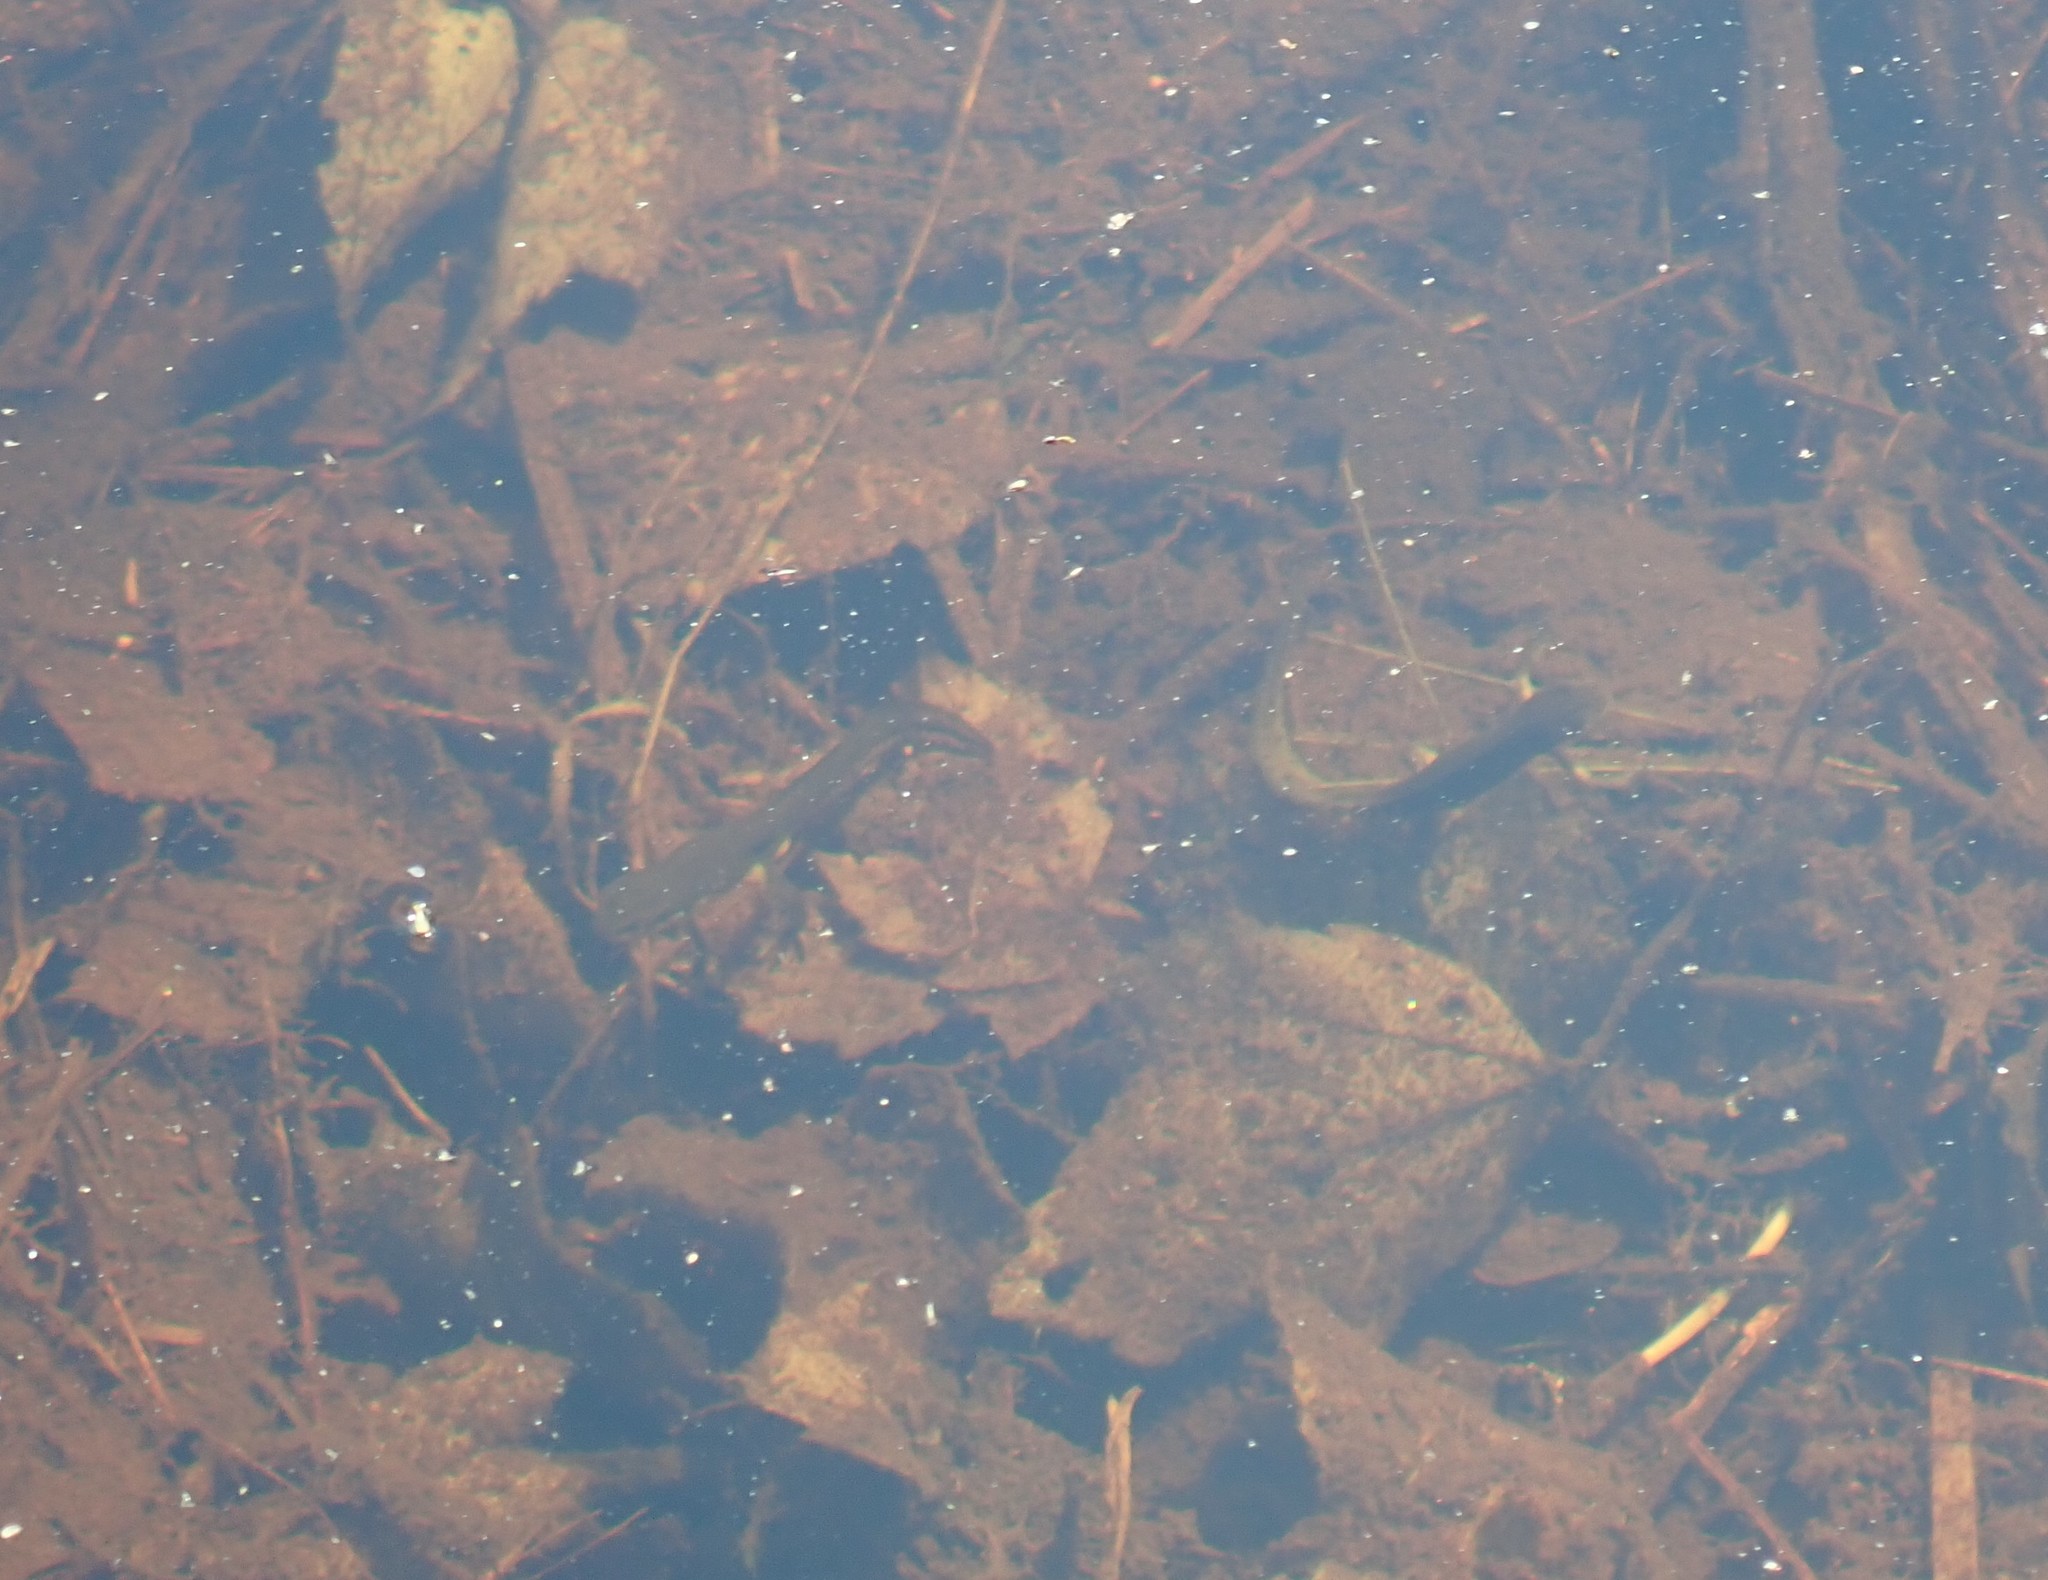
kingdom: Animalia
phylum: Chordata
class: Amphibia
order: Caudata
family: Salamandridae
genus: Notophthalmus
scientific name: Notophthalmus viridescens
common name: Eastern newt
